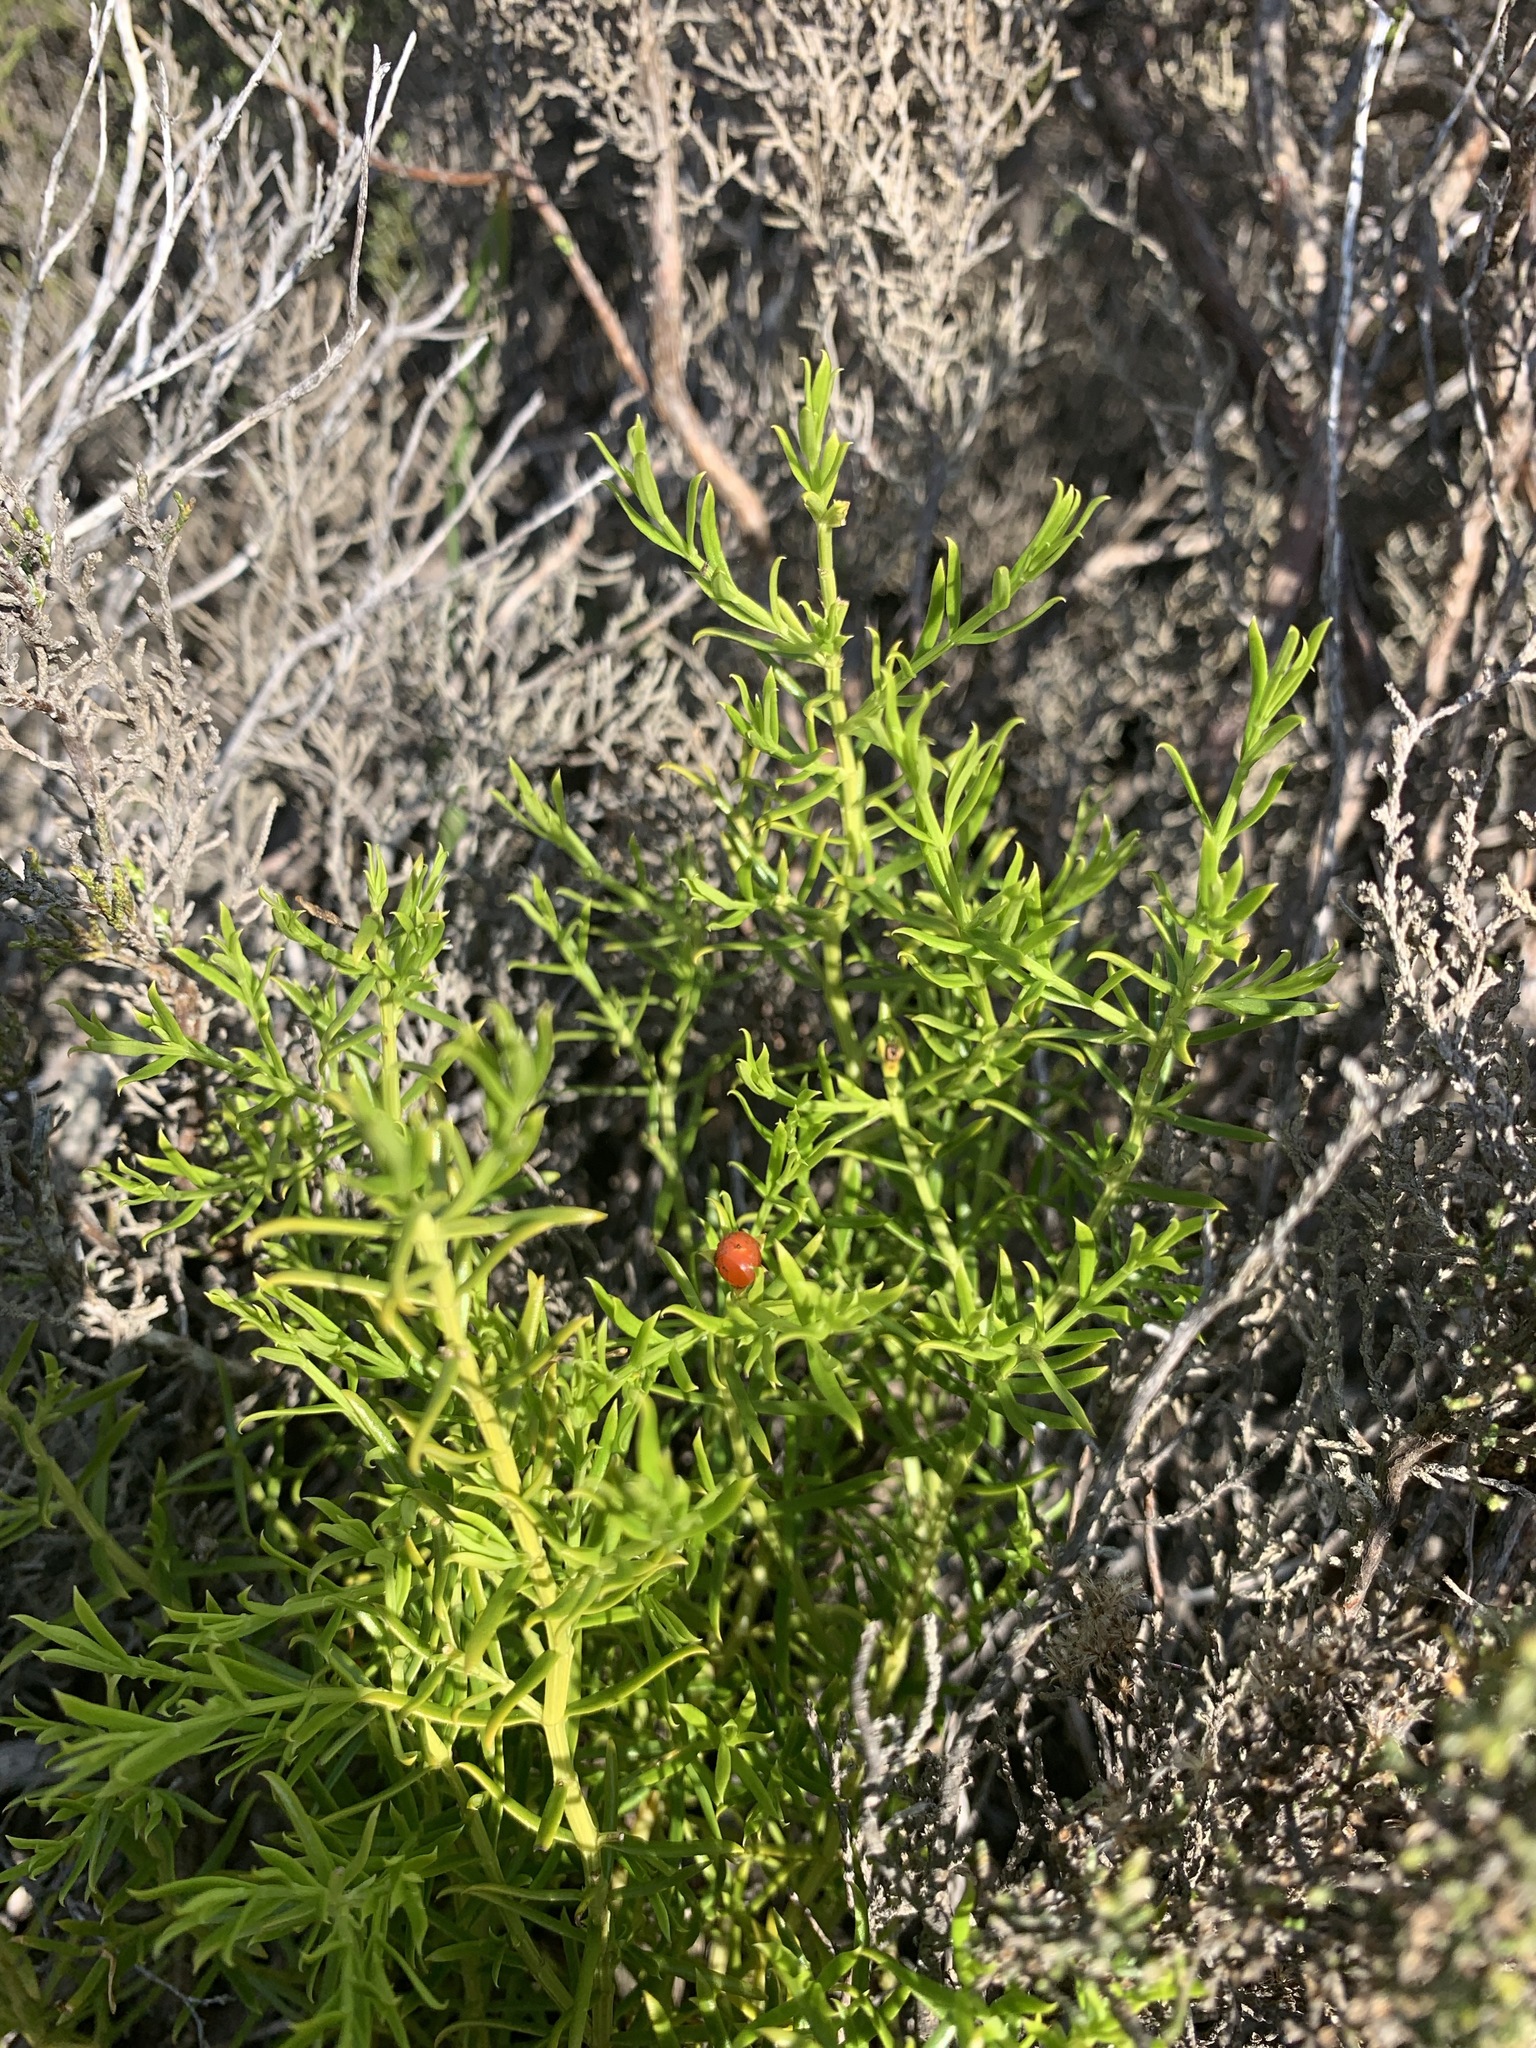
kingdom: Plantae
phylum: Tracheophyta
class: Magnoliopsida
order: Gentianales
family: Gentianaceae
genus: Chironia
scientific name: Chironia baccifera
